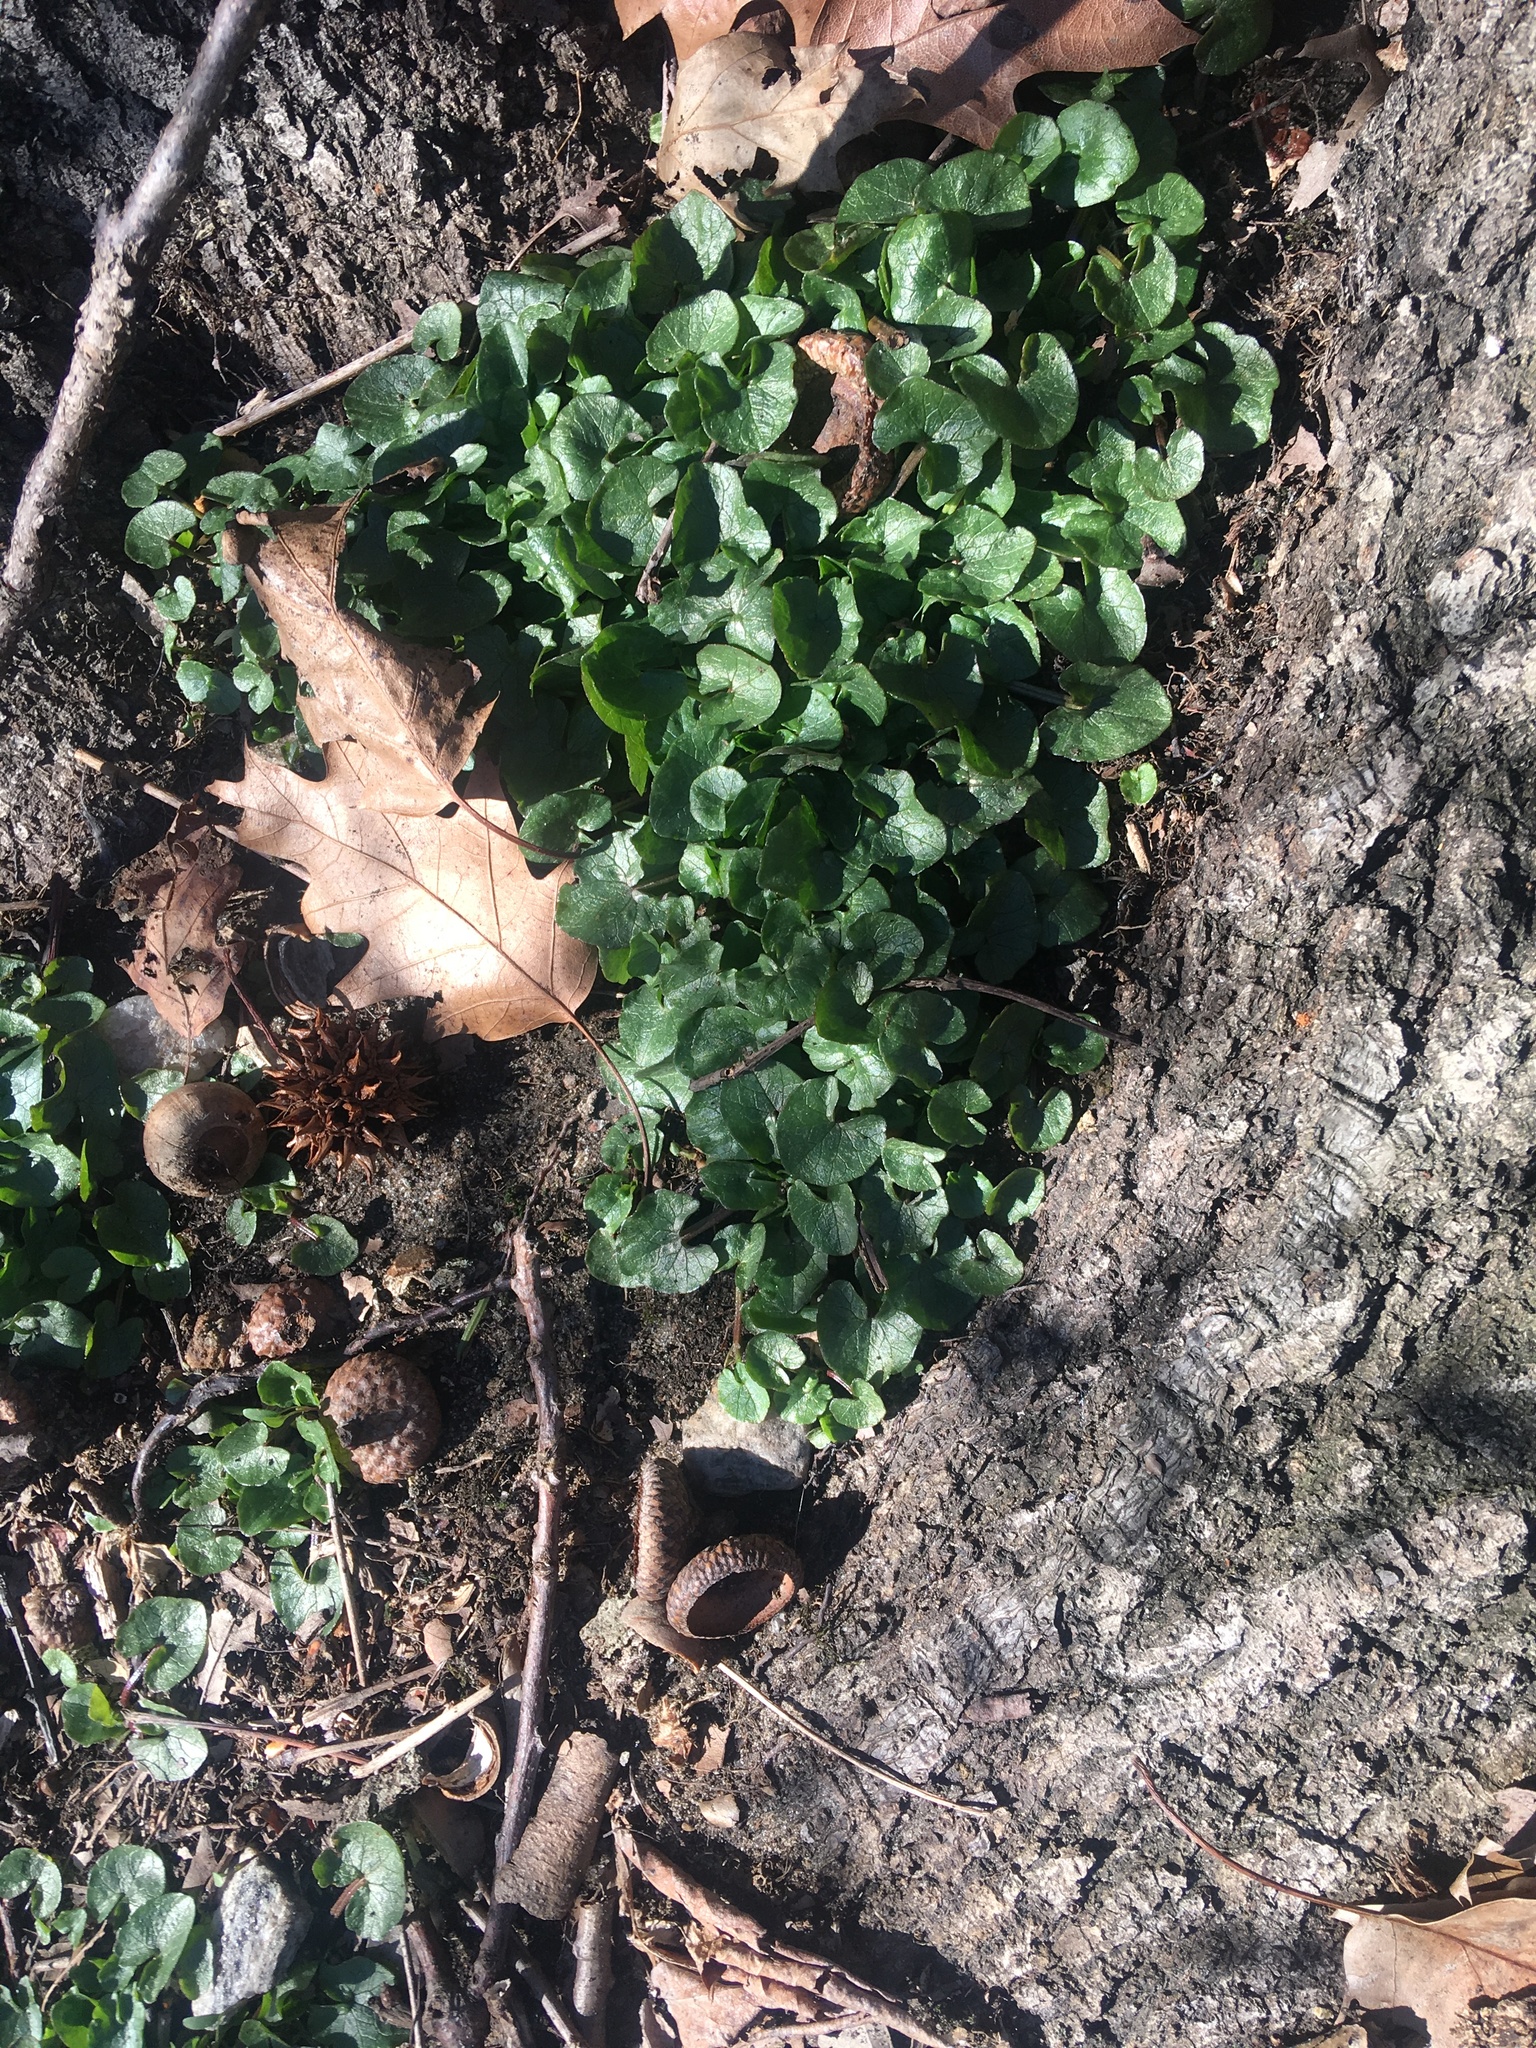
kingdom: Plantae
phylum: Tracheophyta
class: Magnoliopsida
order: Ranunculales
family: Ranunculaceae
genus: Ficaria
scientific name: Ficaria verna
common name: Lesser celandine
